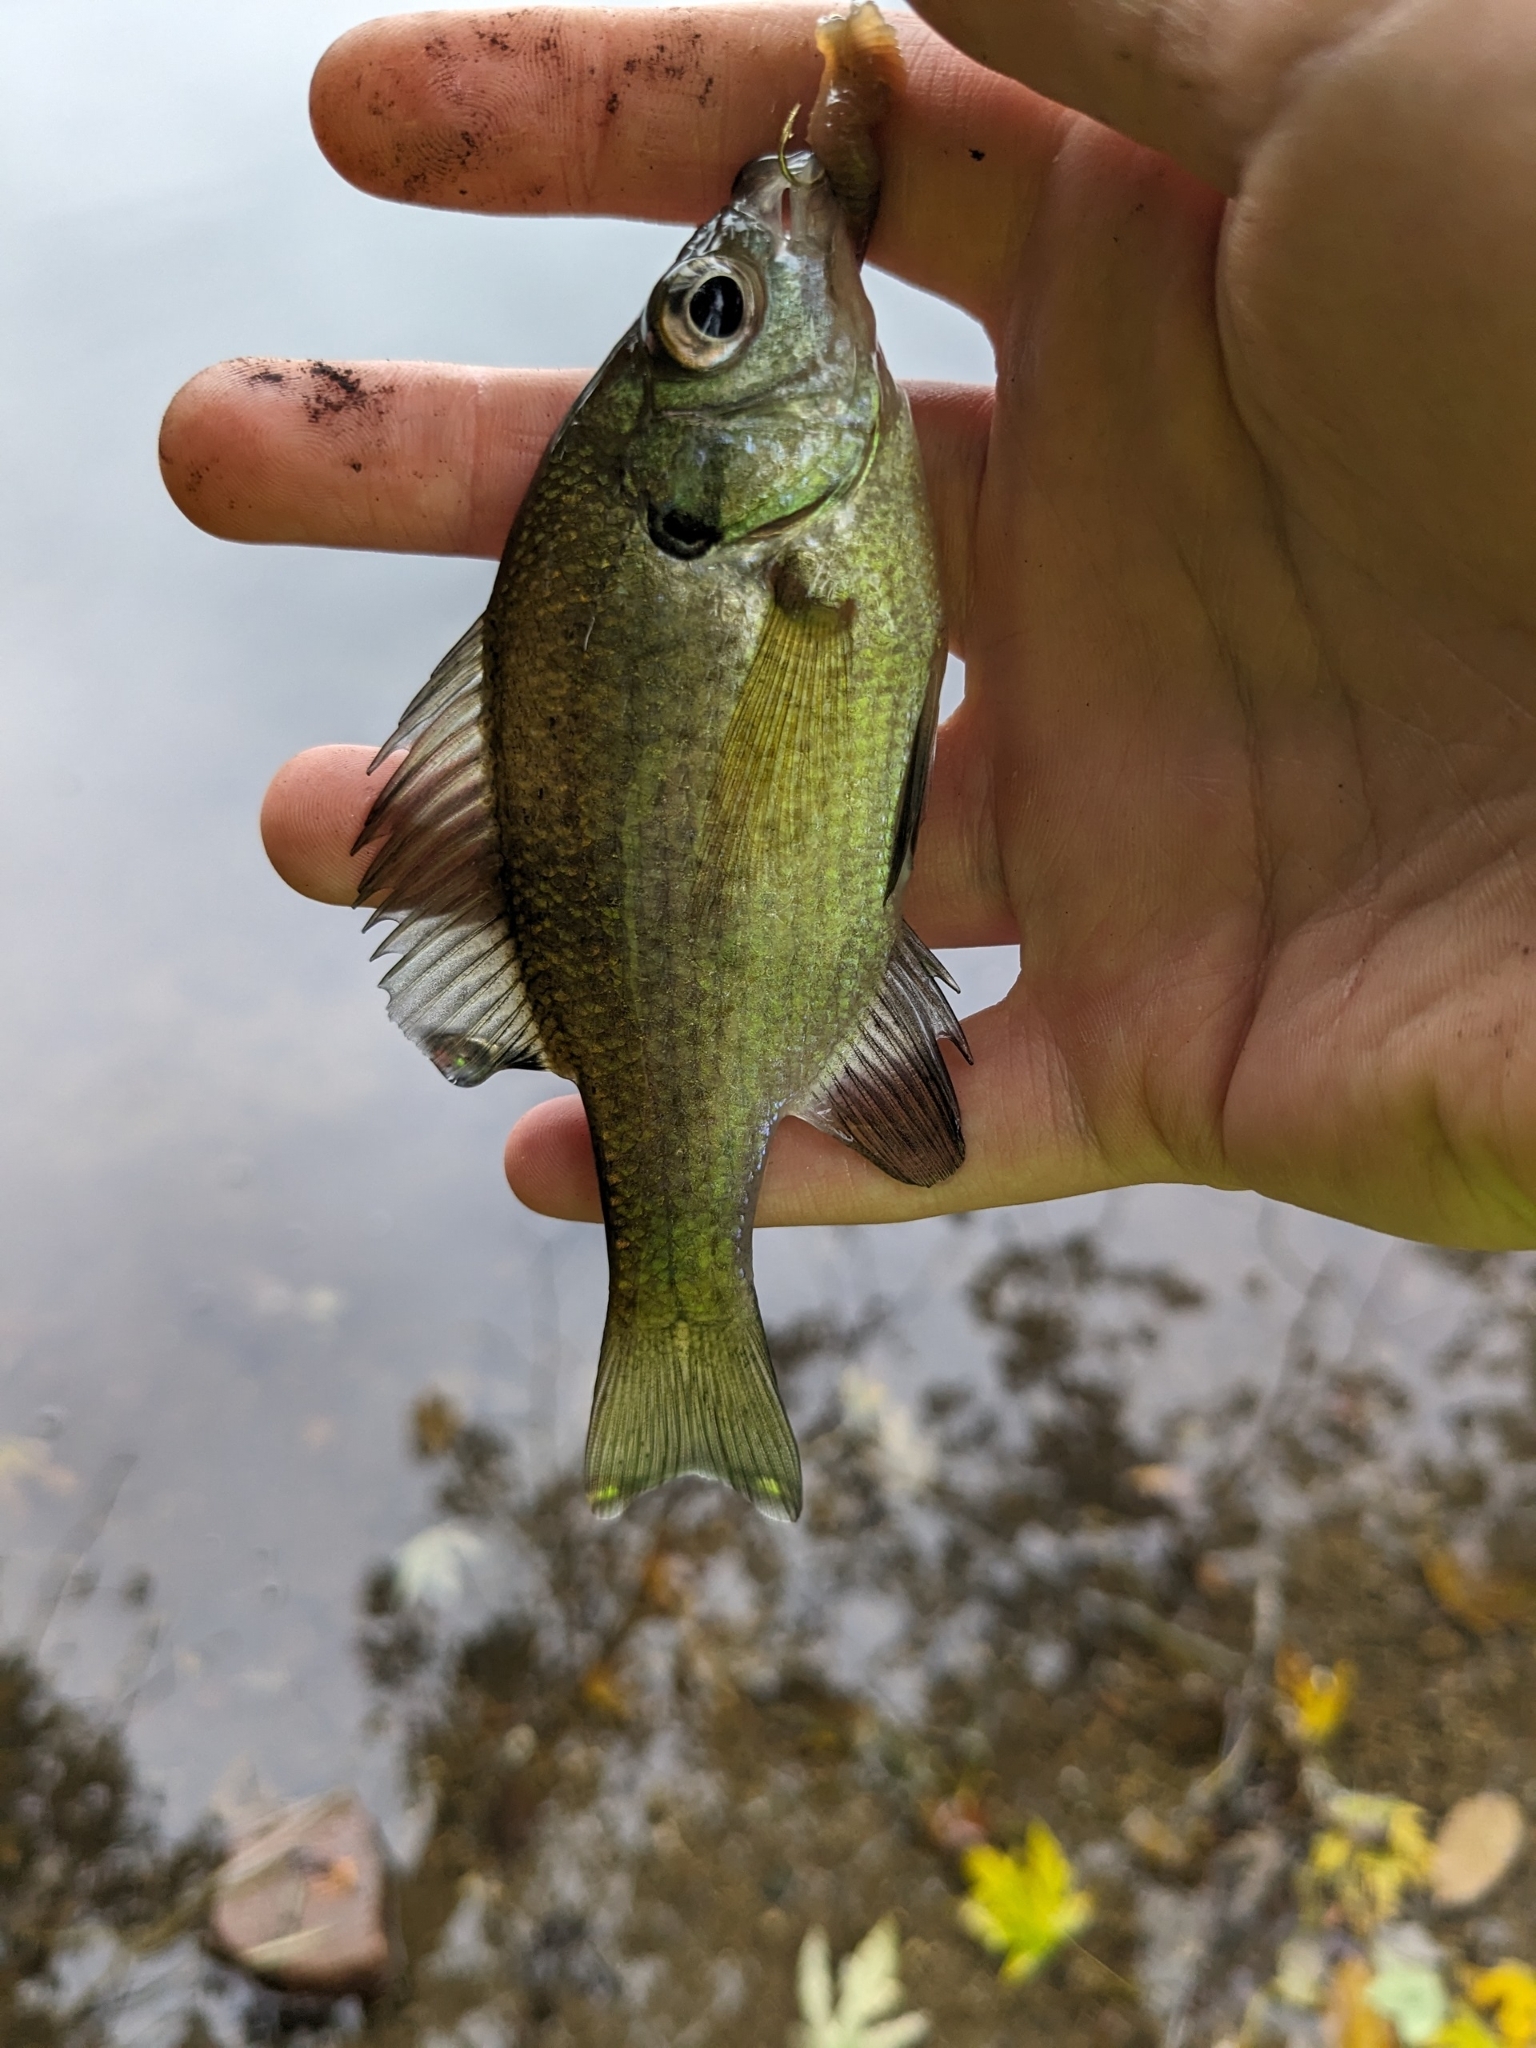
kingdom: Animalia
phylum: Chordata
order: Perciformes
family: Centrarchidae
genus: Lepomis
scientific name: Lepomis macrochirus
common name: Bluegill
